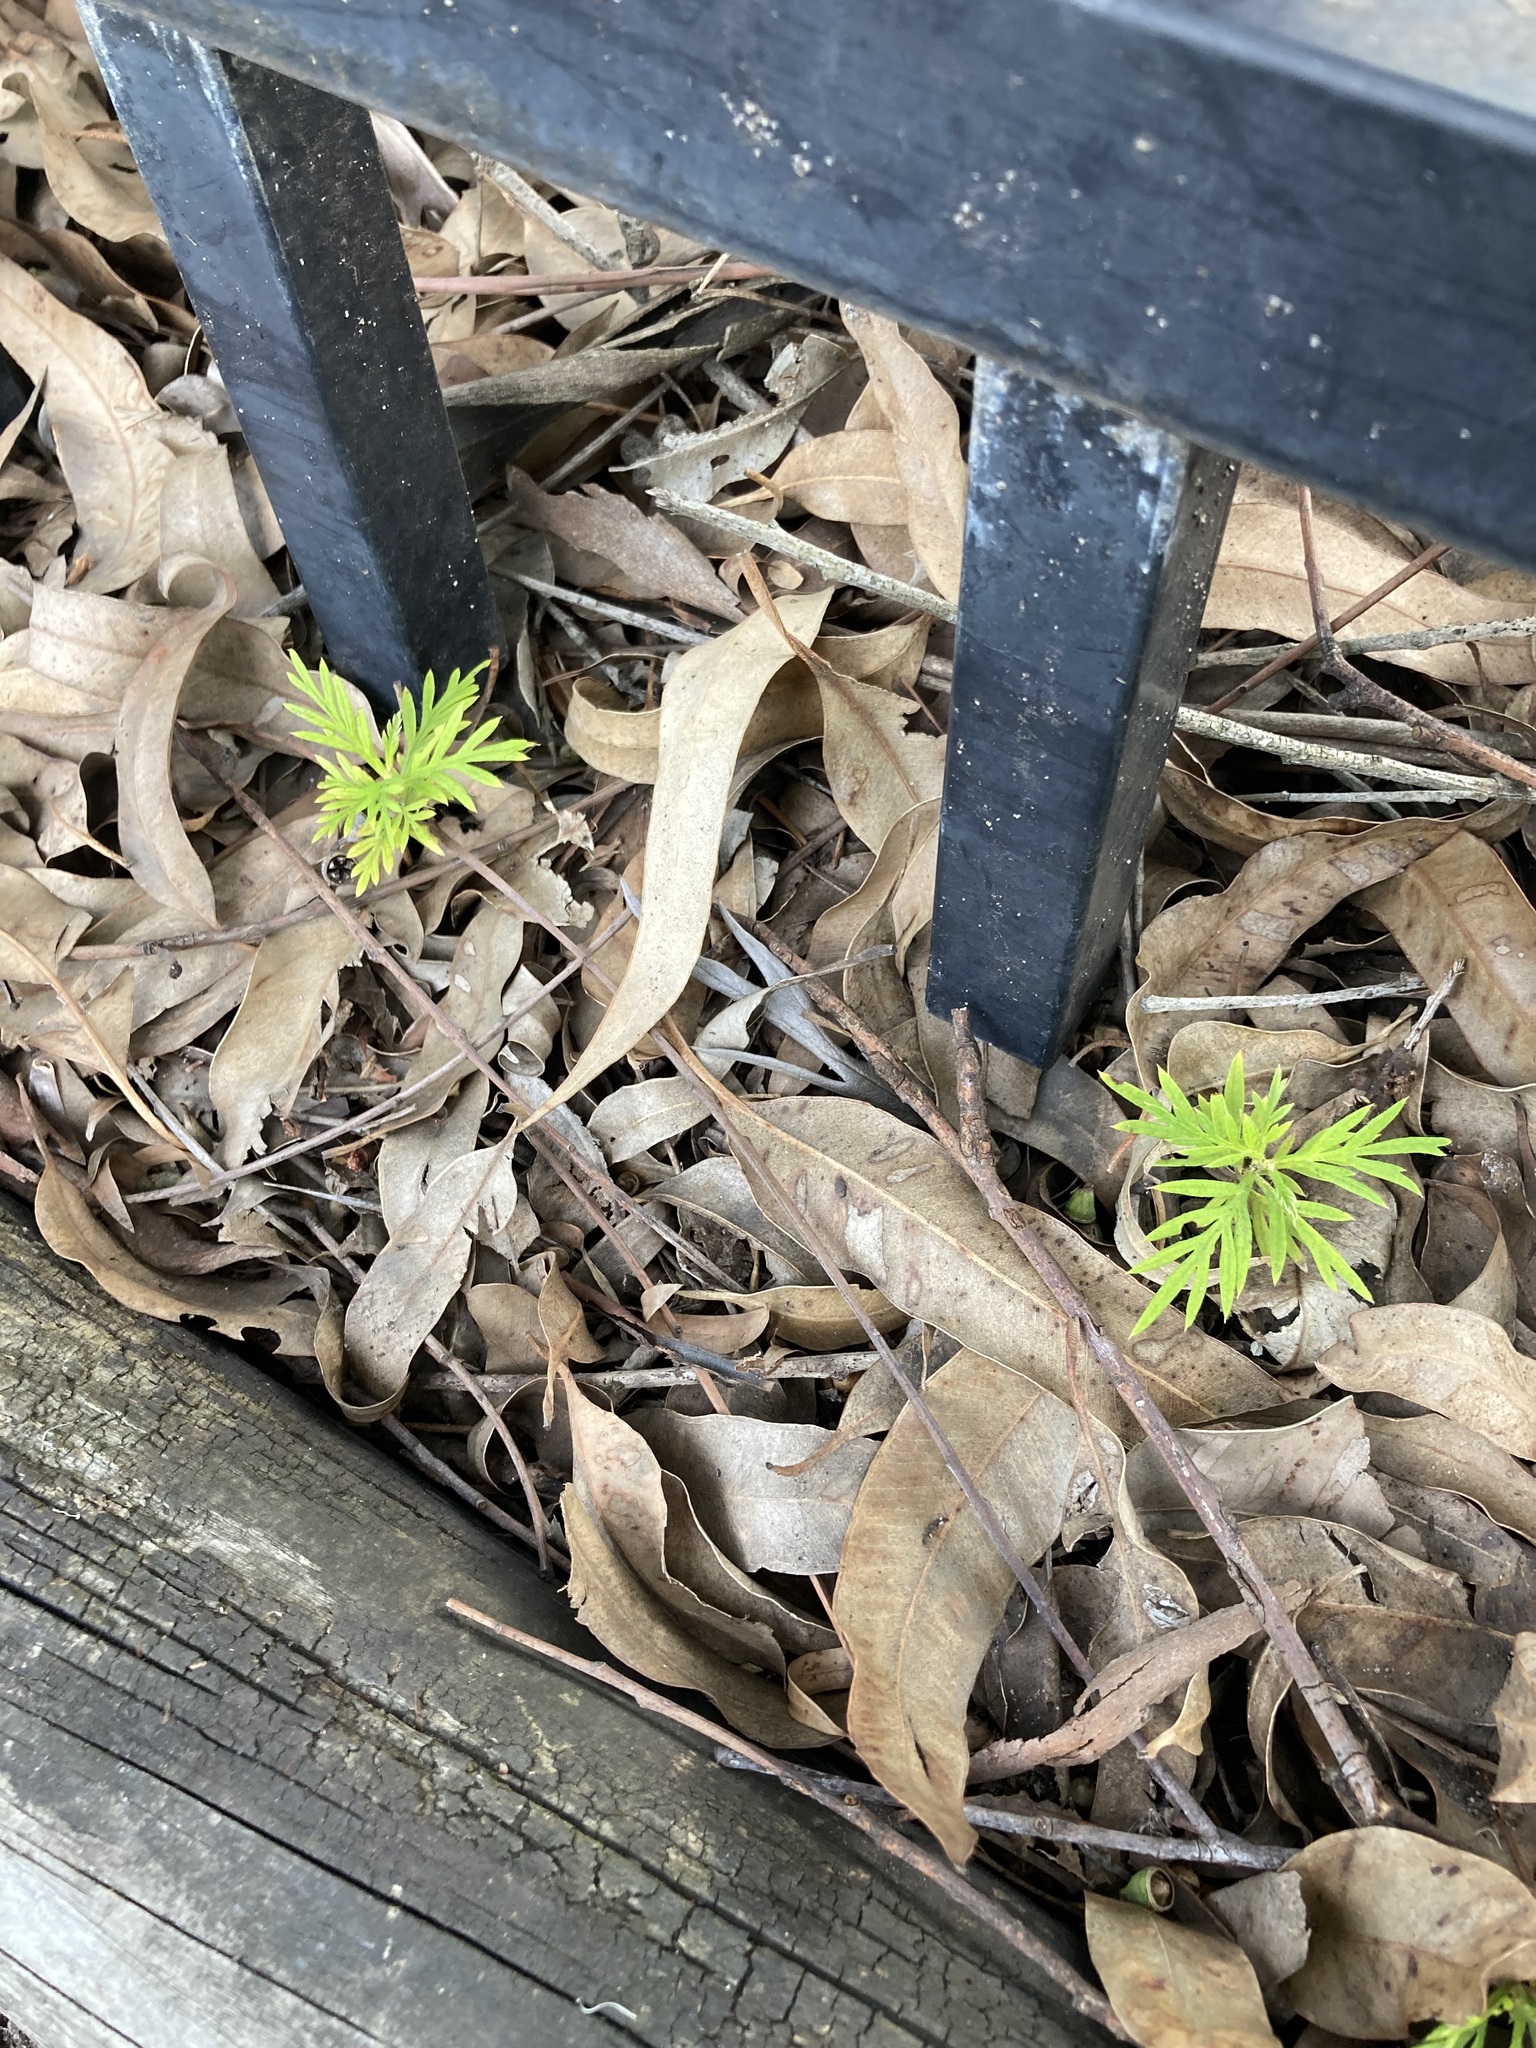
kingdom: Plantae
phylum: Tracheophyta
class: Magnoliopsida
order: Proteales
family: Proteaceae
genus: Grevillea
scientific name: Grevillea robusta
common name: Silkoak
